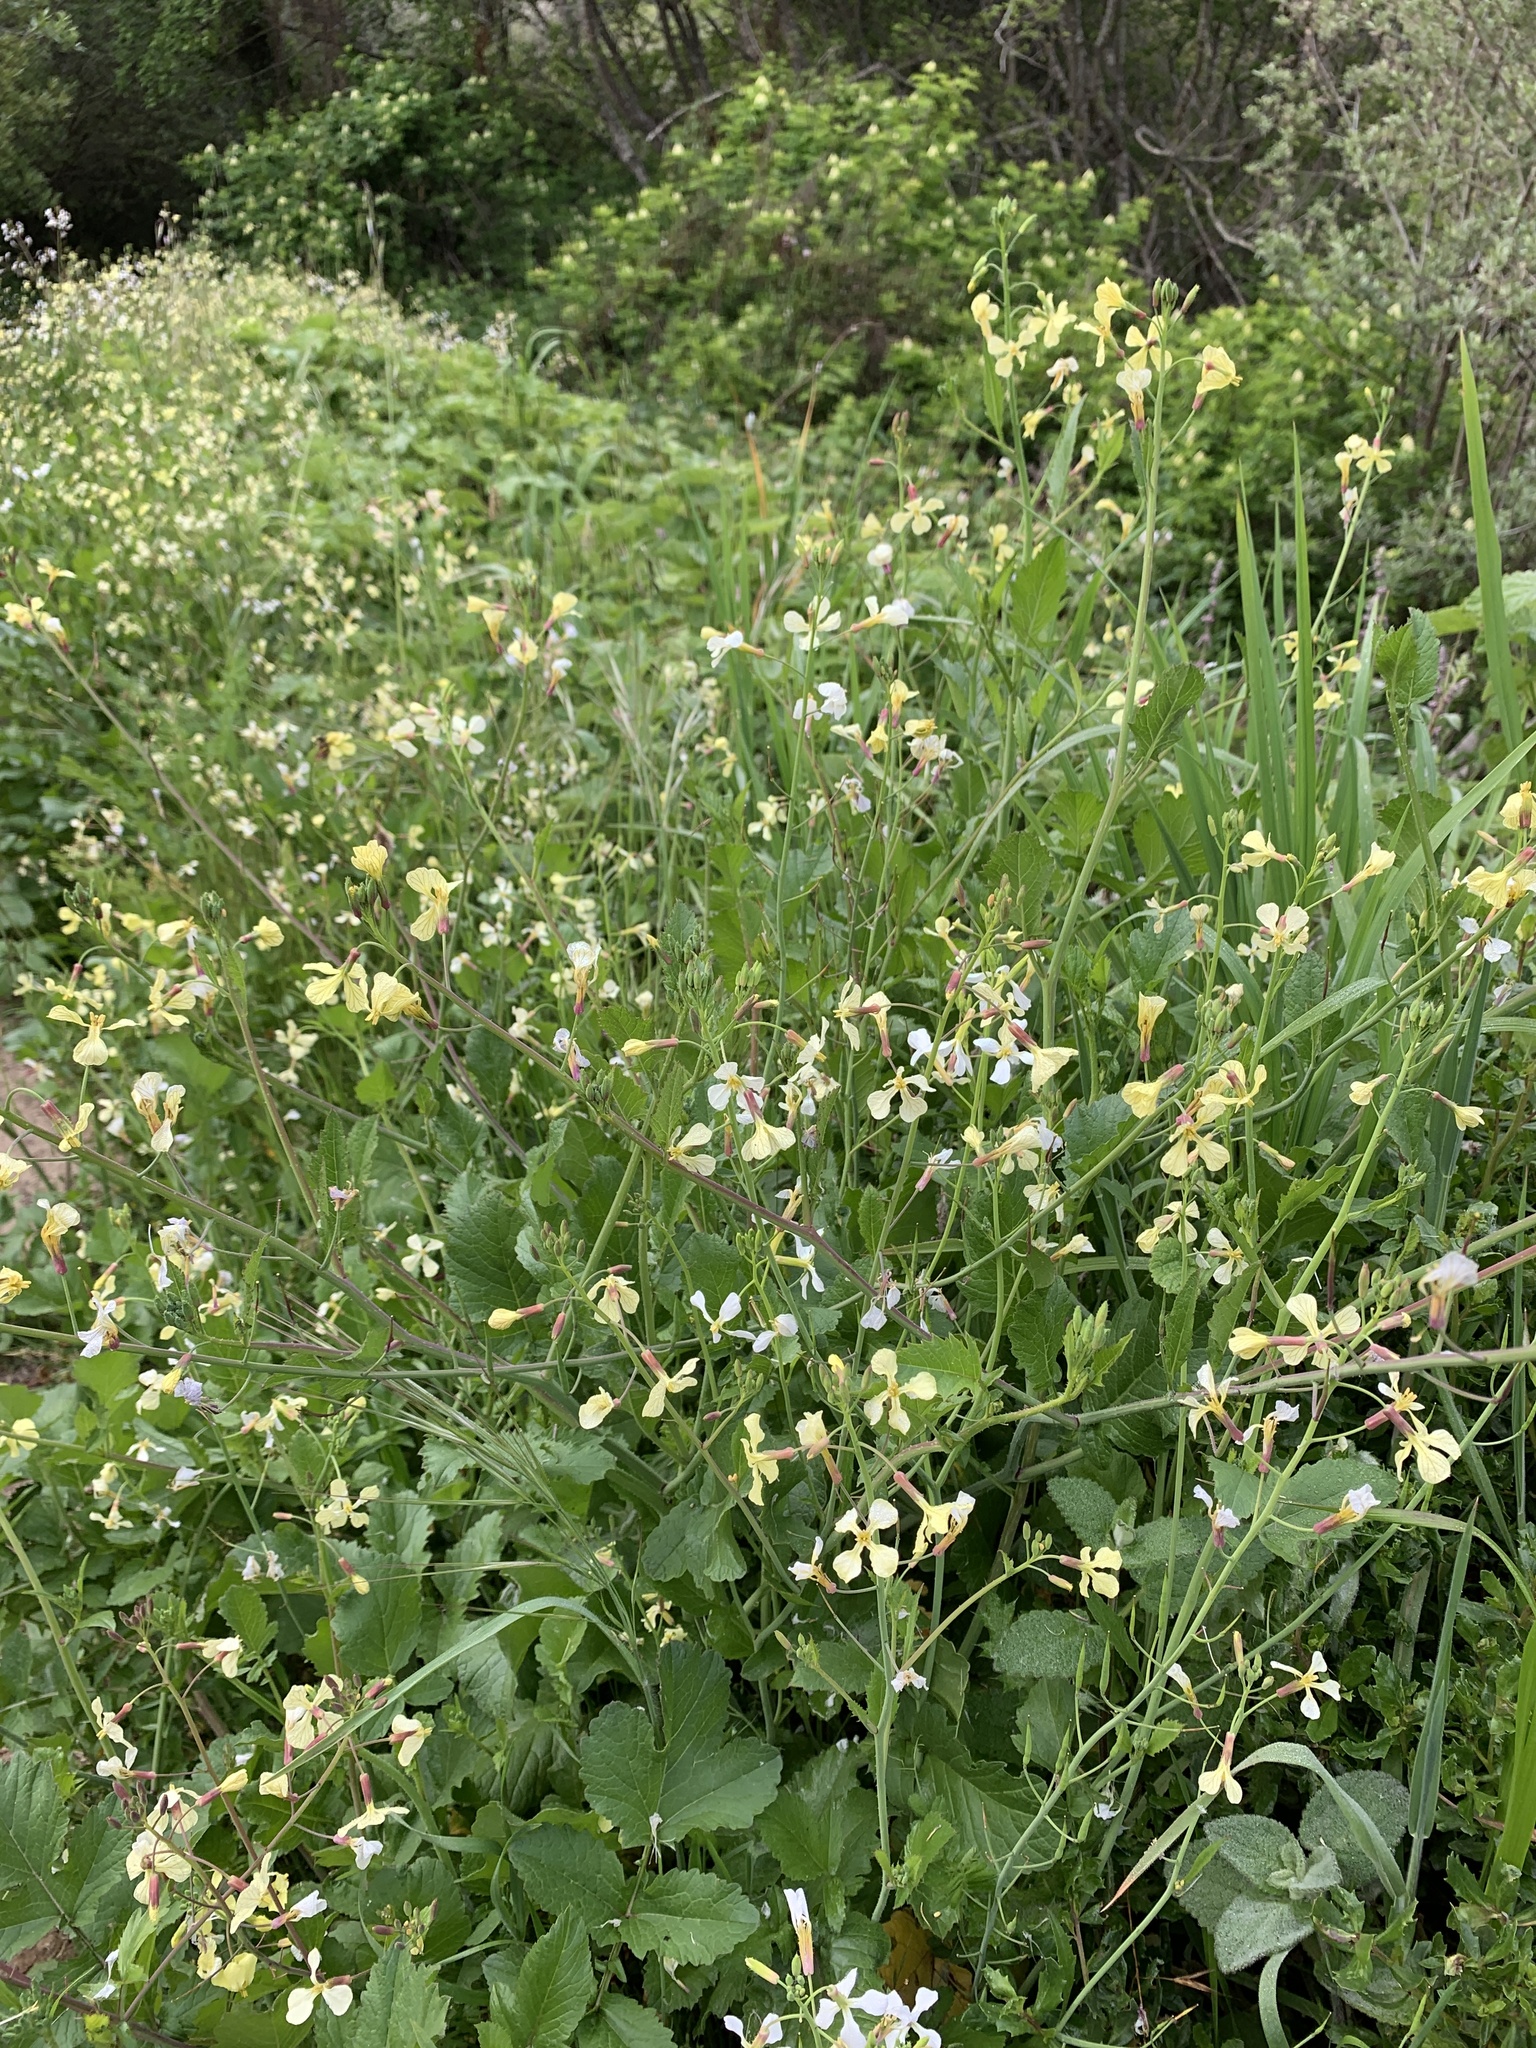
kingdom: Plantae
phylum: Tracheophyta
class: Magnoliopsida
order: Brassicales
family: Brassicaceae
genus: Raphanus
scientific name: Raphanus raphanistrum
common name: Wild radish
